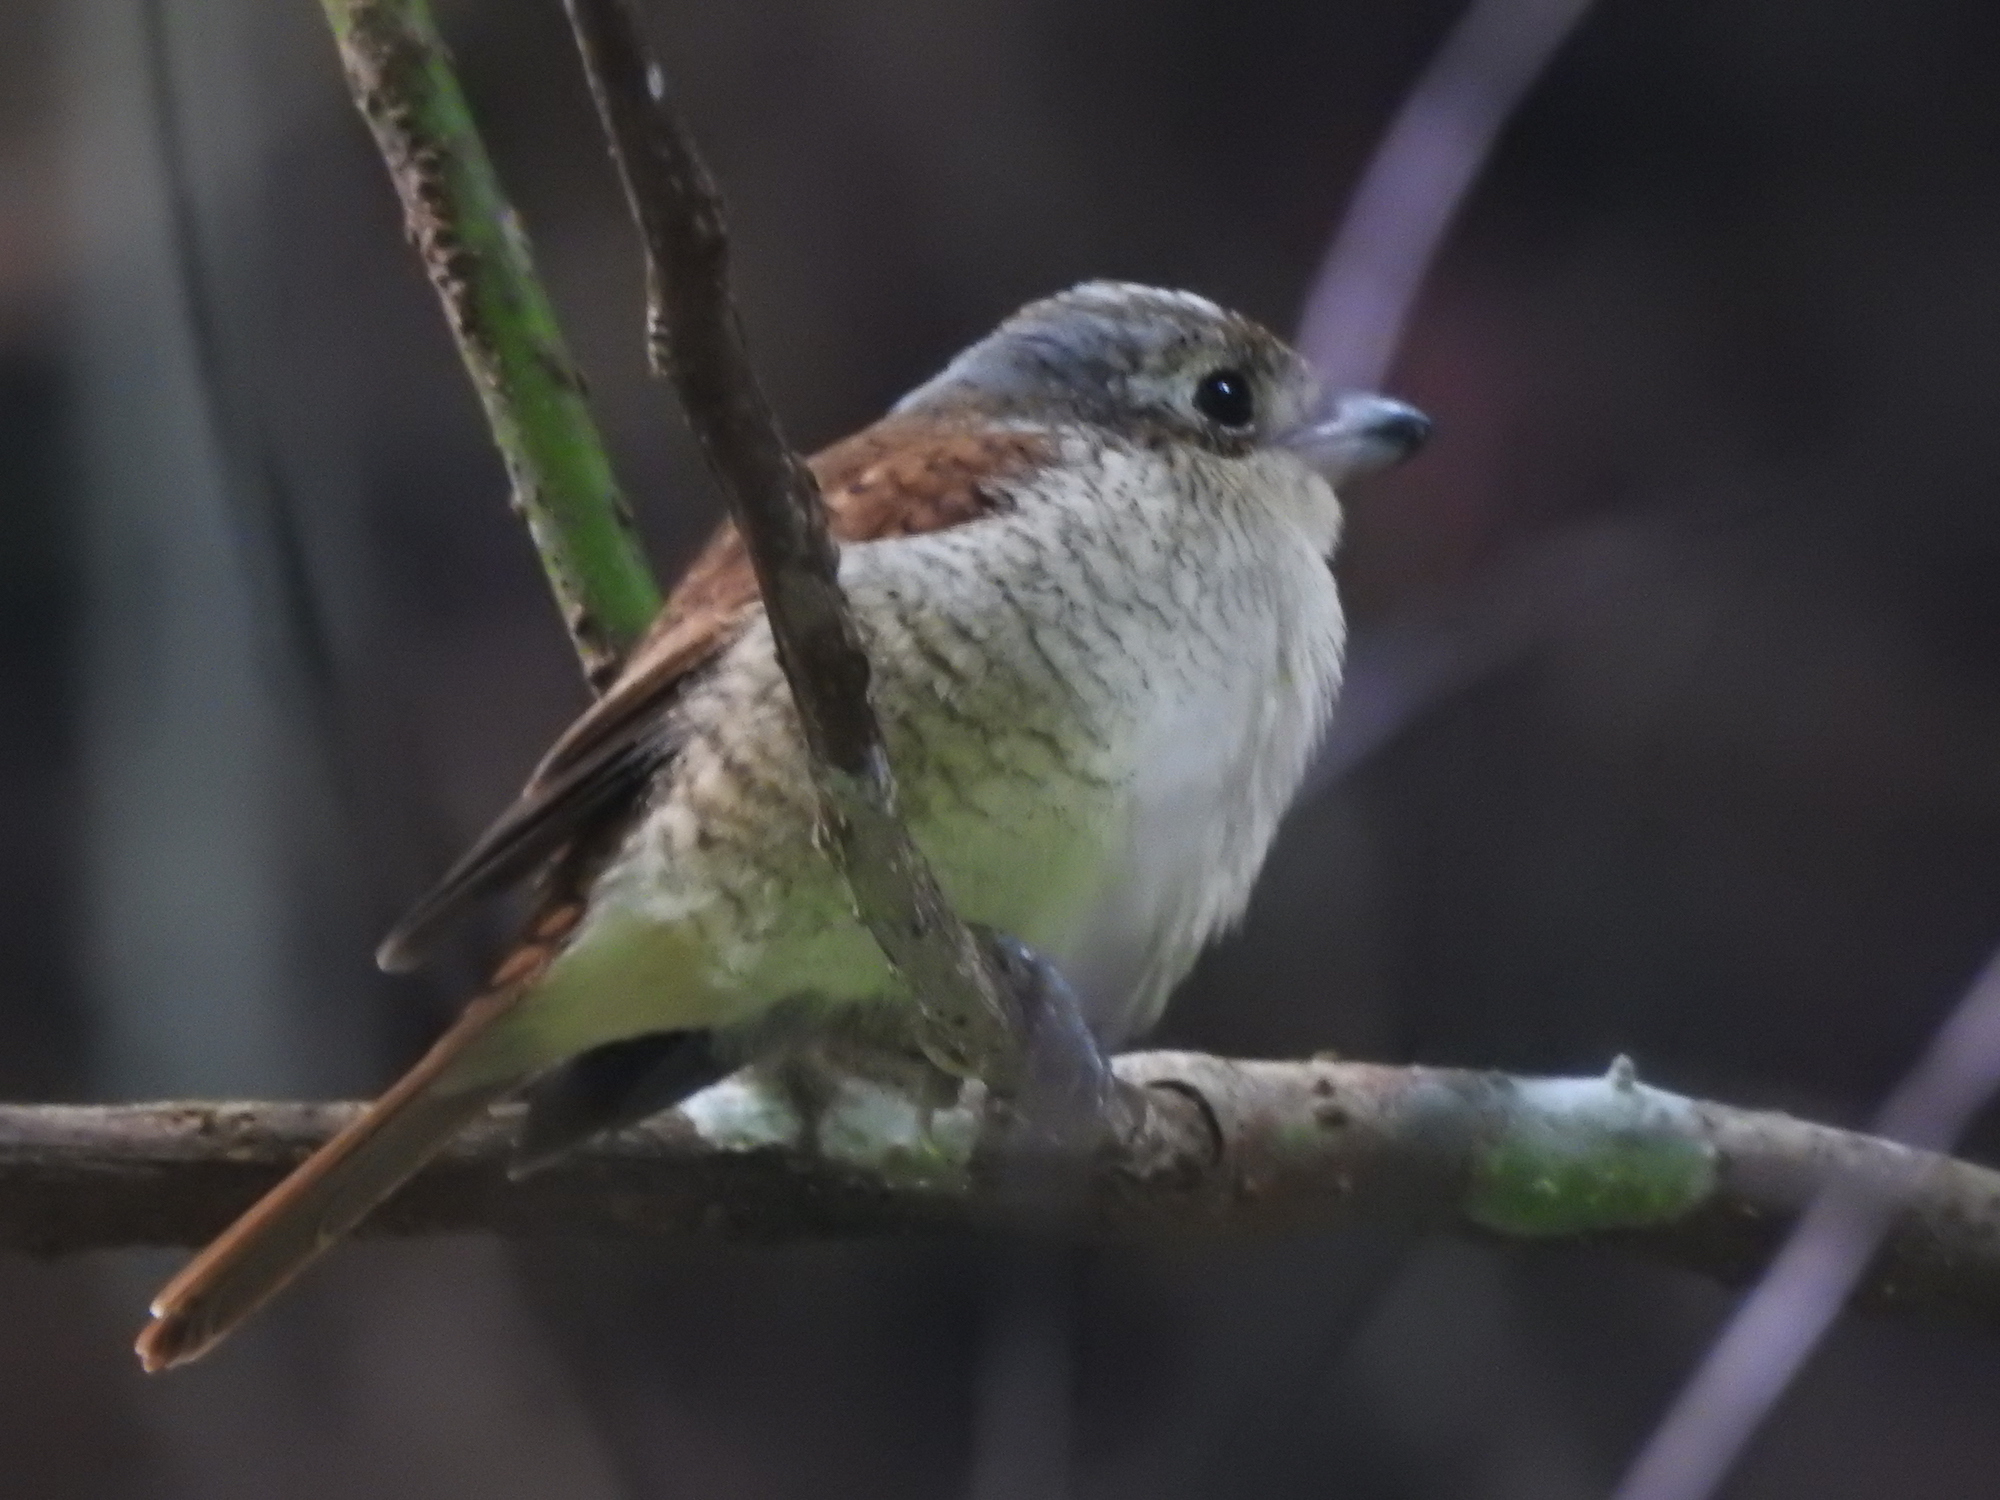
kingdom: Animalia
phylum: Chordata
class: Aves
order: Passeriformes
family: Laniidae
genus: Lanius
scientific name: Lanius tigrinus
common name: Tiger shrike
